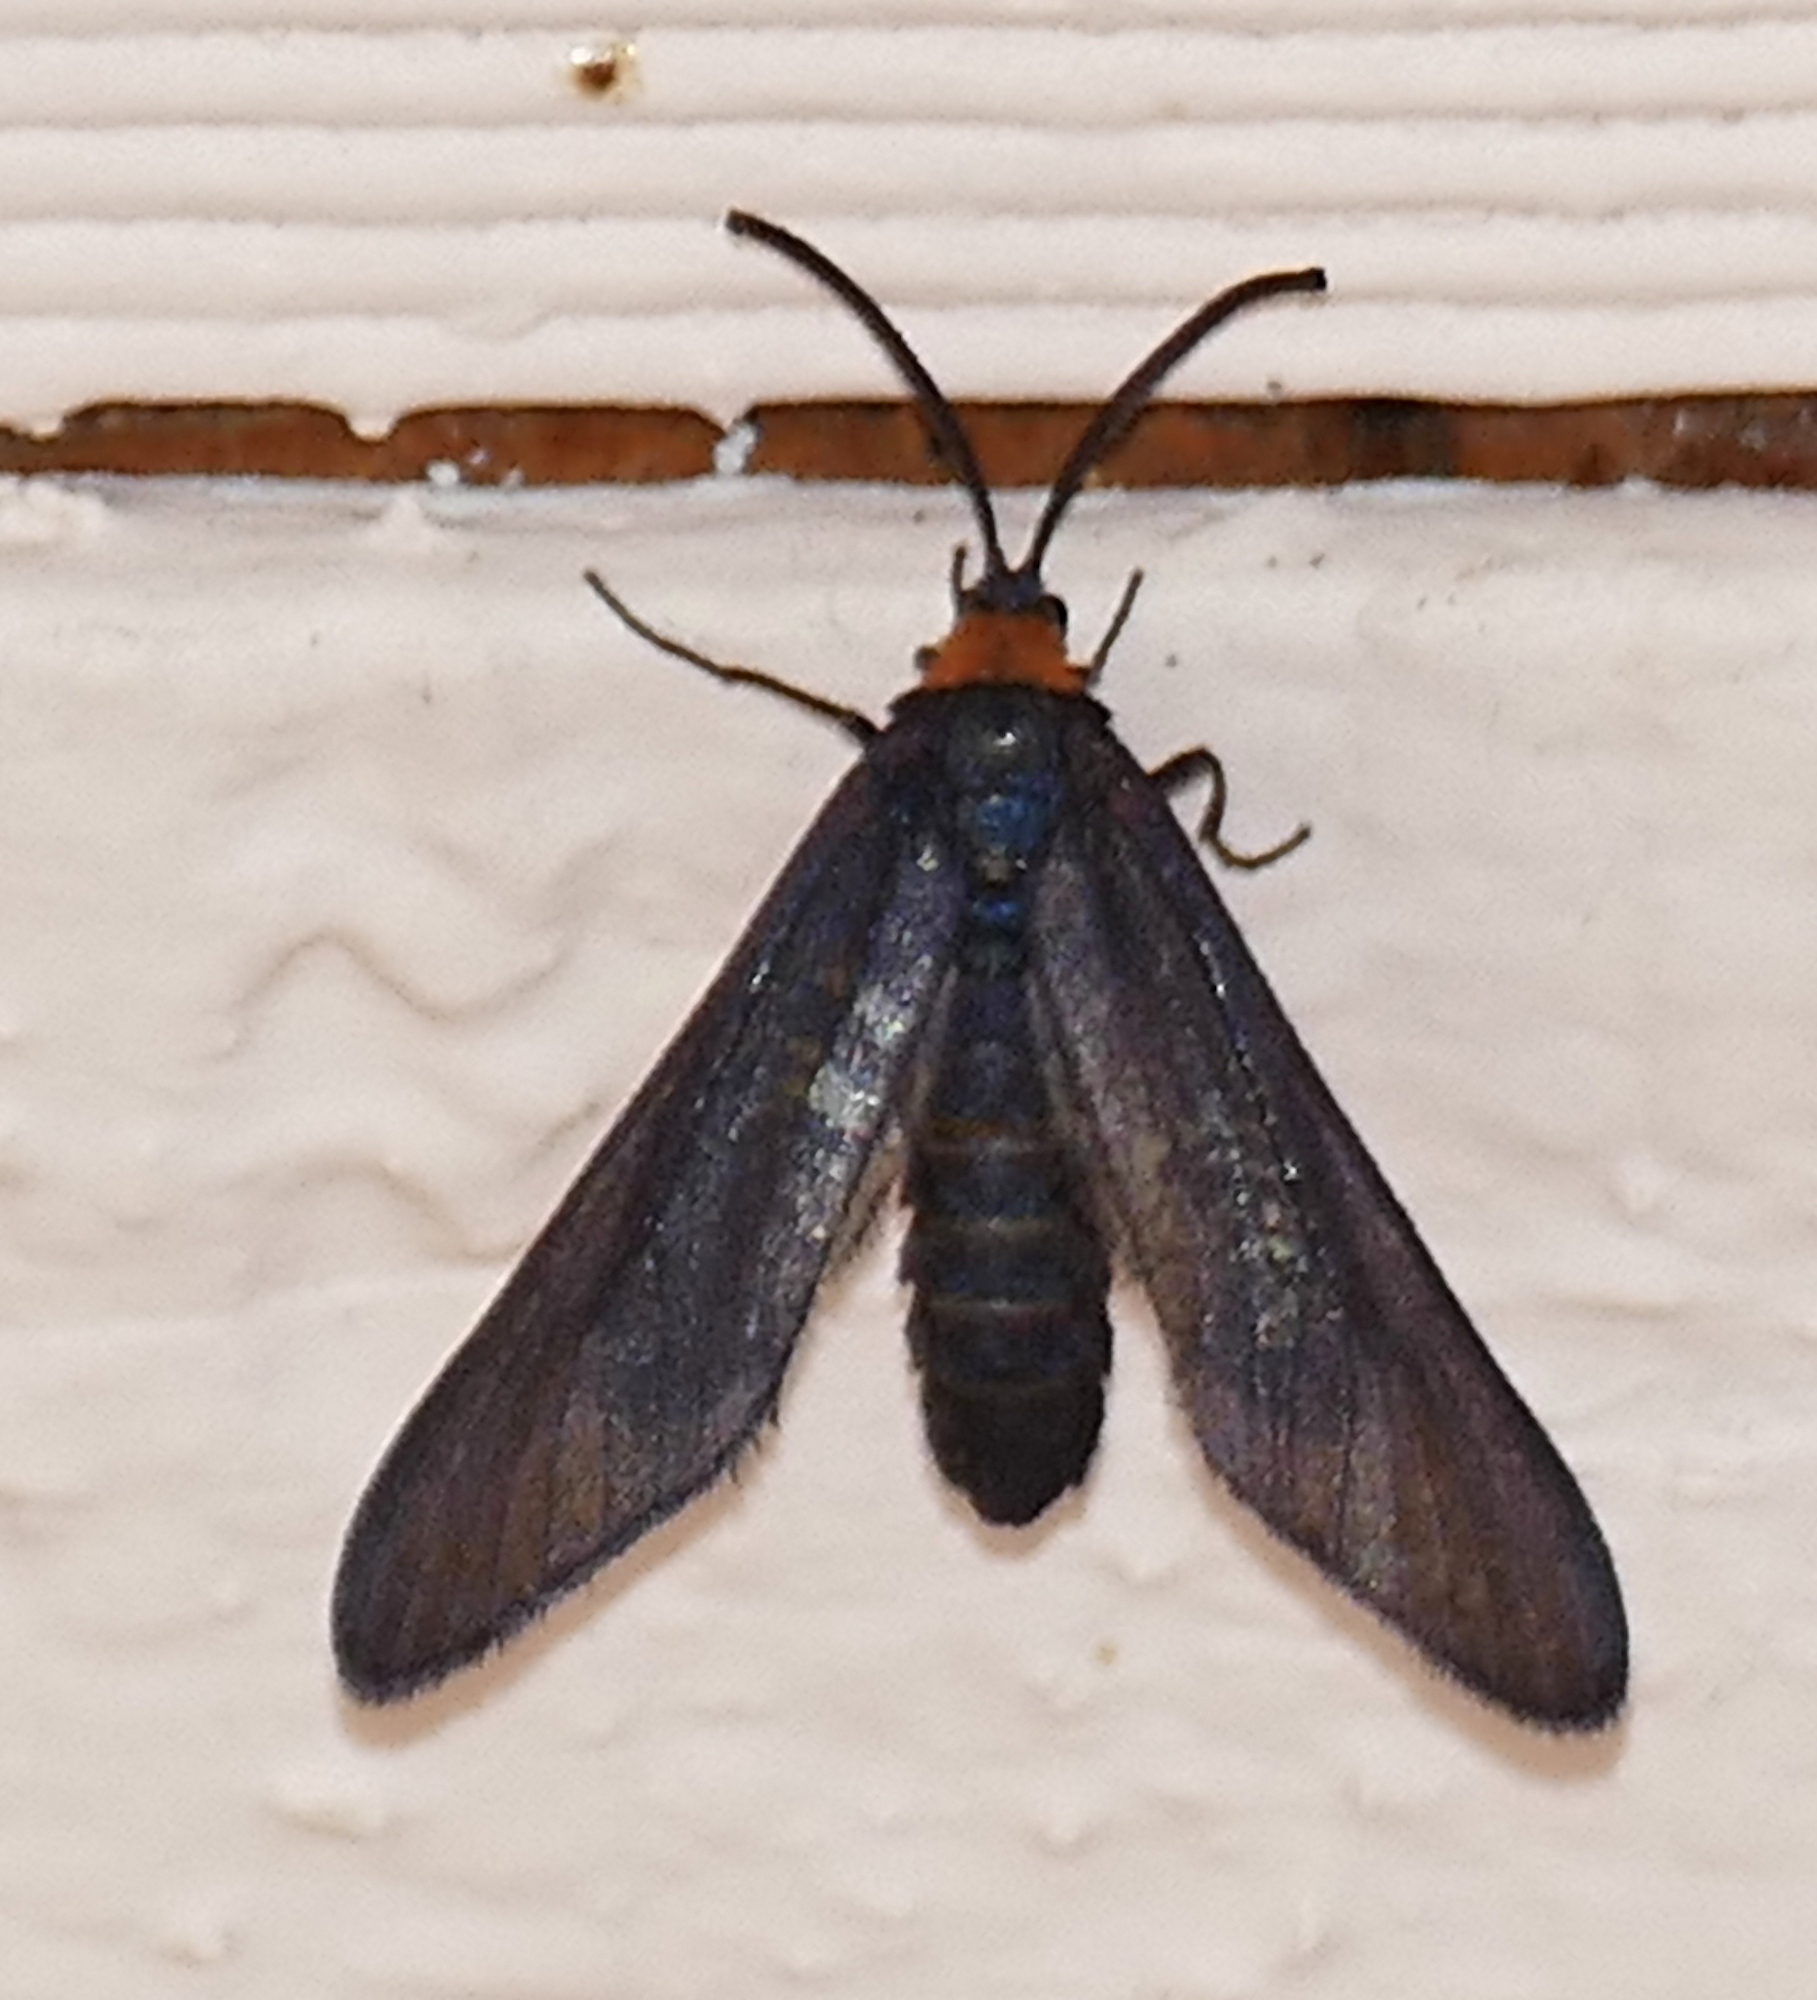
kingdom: Animalia
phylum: Arthropoda
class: Insecta
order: Lepidoptera
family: Zygaenidae
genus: Harrisina
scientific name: Harrisina metallica
